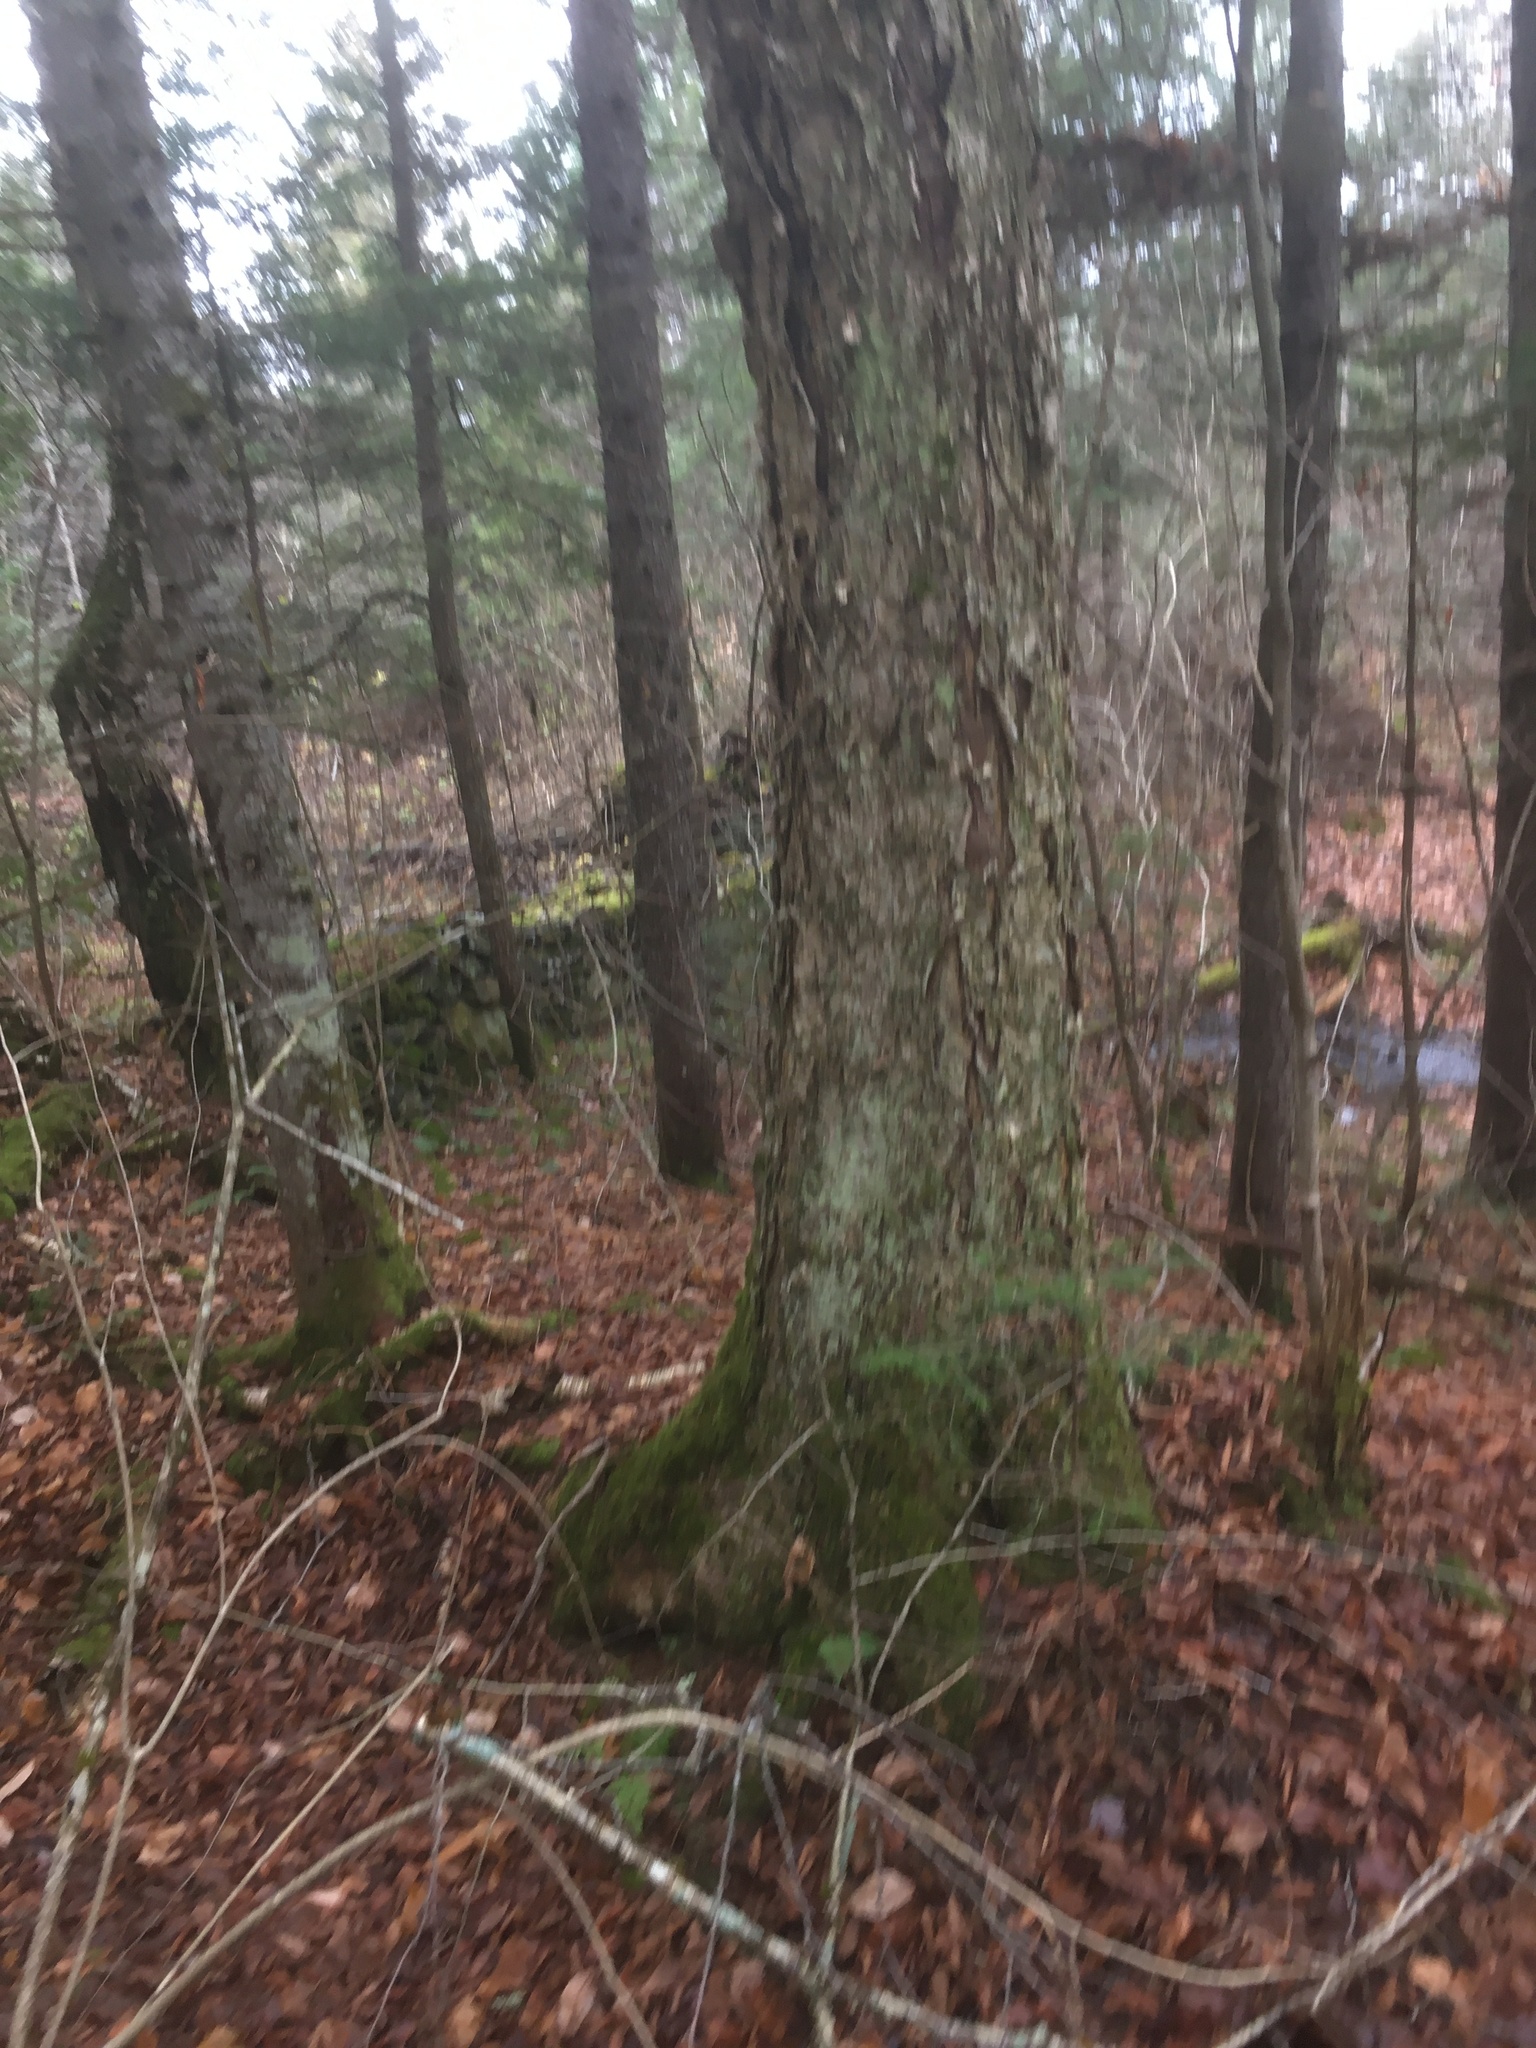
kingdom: Plantae
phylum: Tracheophyta
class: Magnoliopsida
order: Fagales
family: Betulaceae
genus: Betula
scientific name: Betula alleghaniensis
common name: Yellow birch
